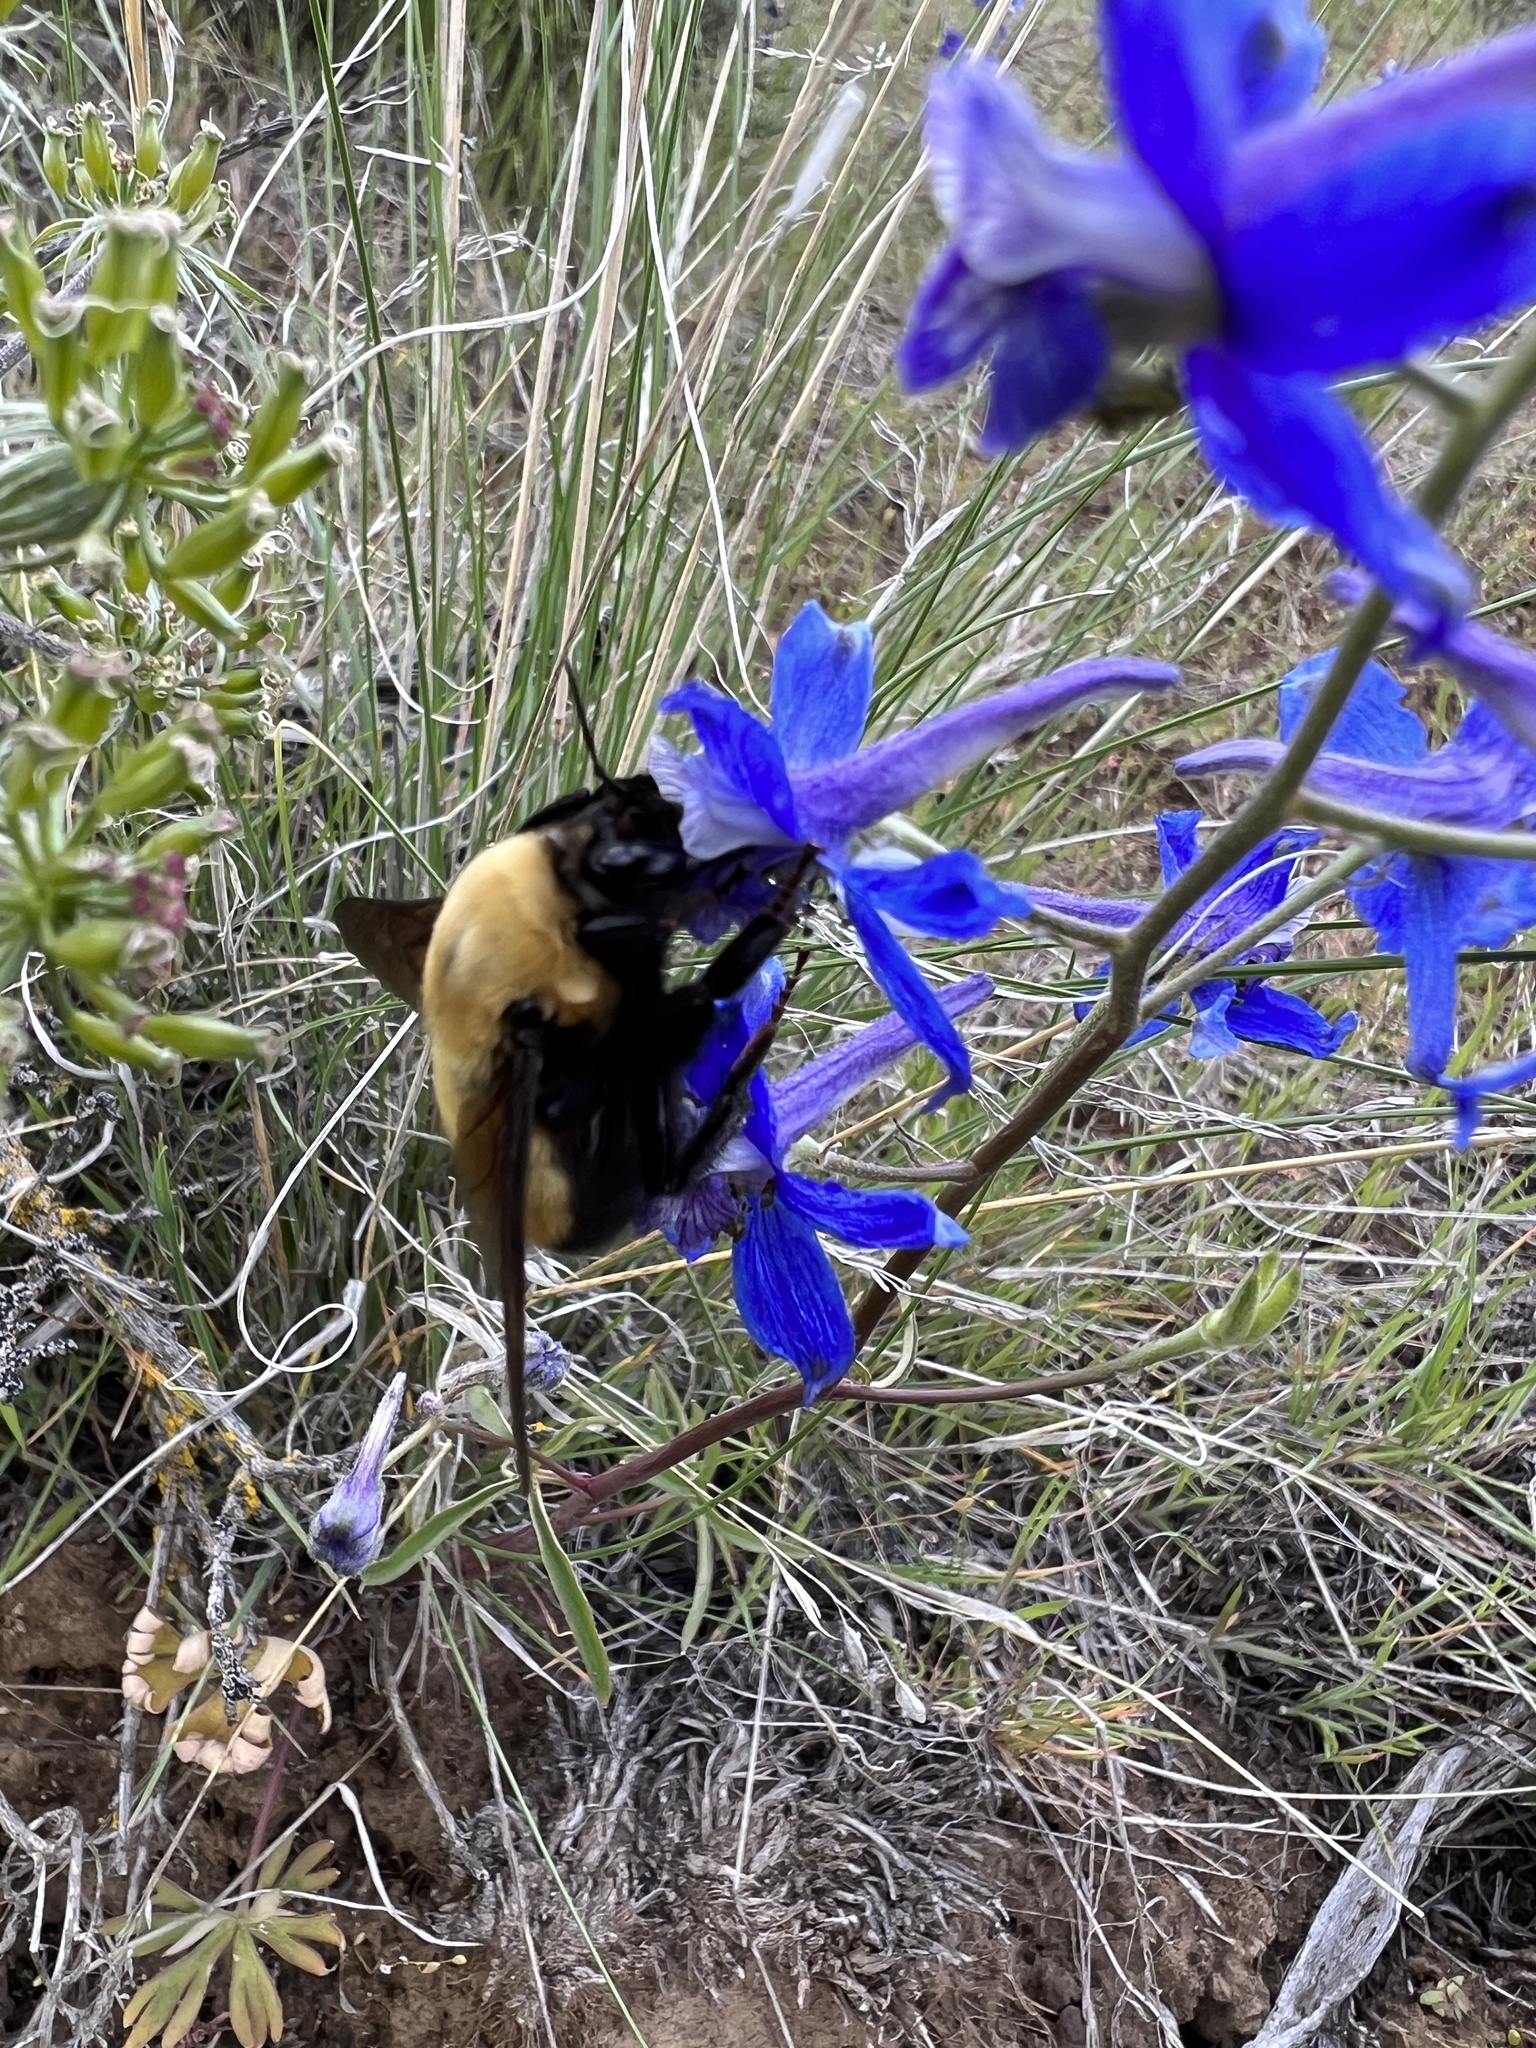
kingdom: Animalia
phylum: Arthropoda
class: Insecta
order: Hymenoptera
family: Apidae
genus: Bombus
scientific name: Bombus nevadensis
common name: Nevada bumble bee
